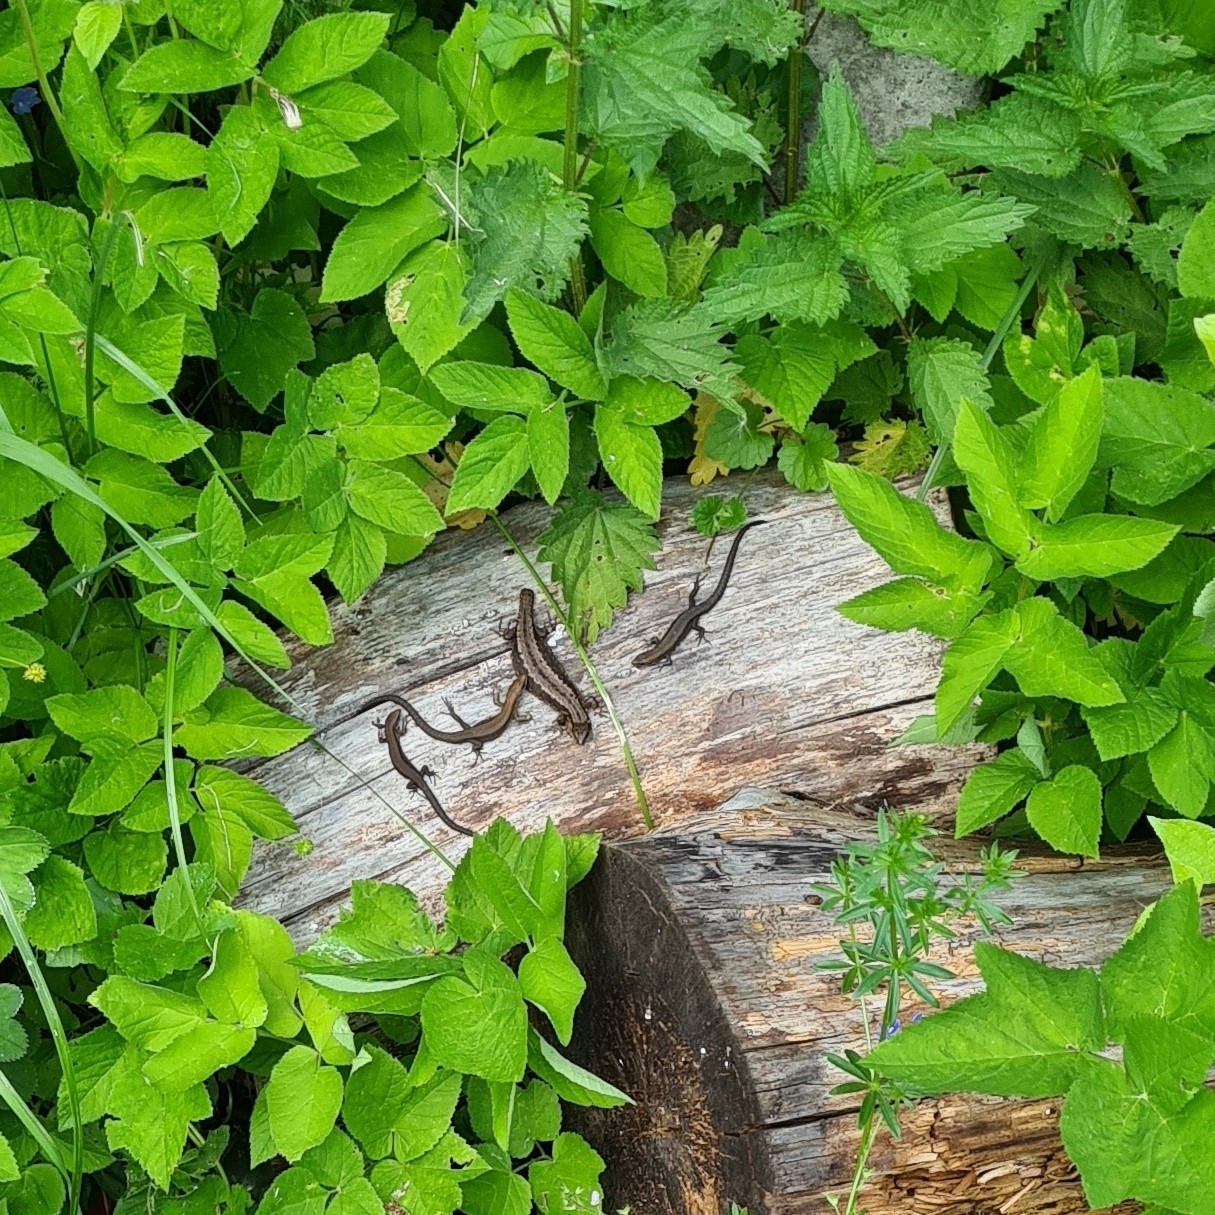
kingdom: Animalia
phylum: Chordata
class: Squamata
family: Lacertidae
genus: Zootoca
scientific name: Zootoca vivipara
